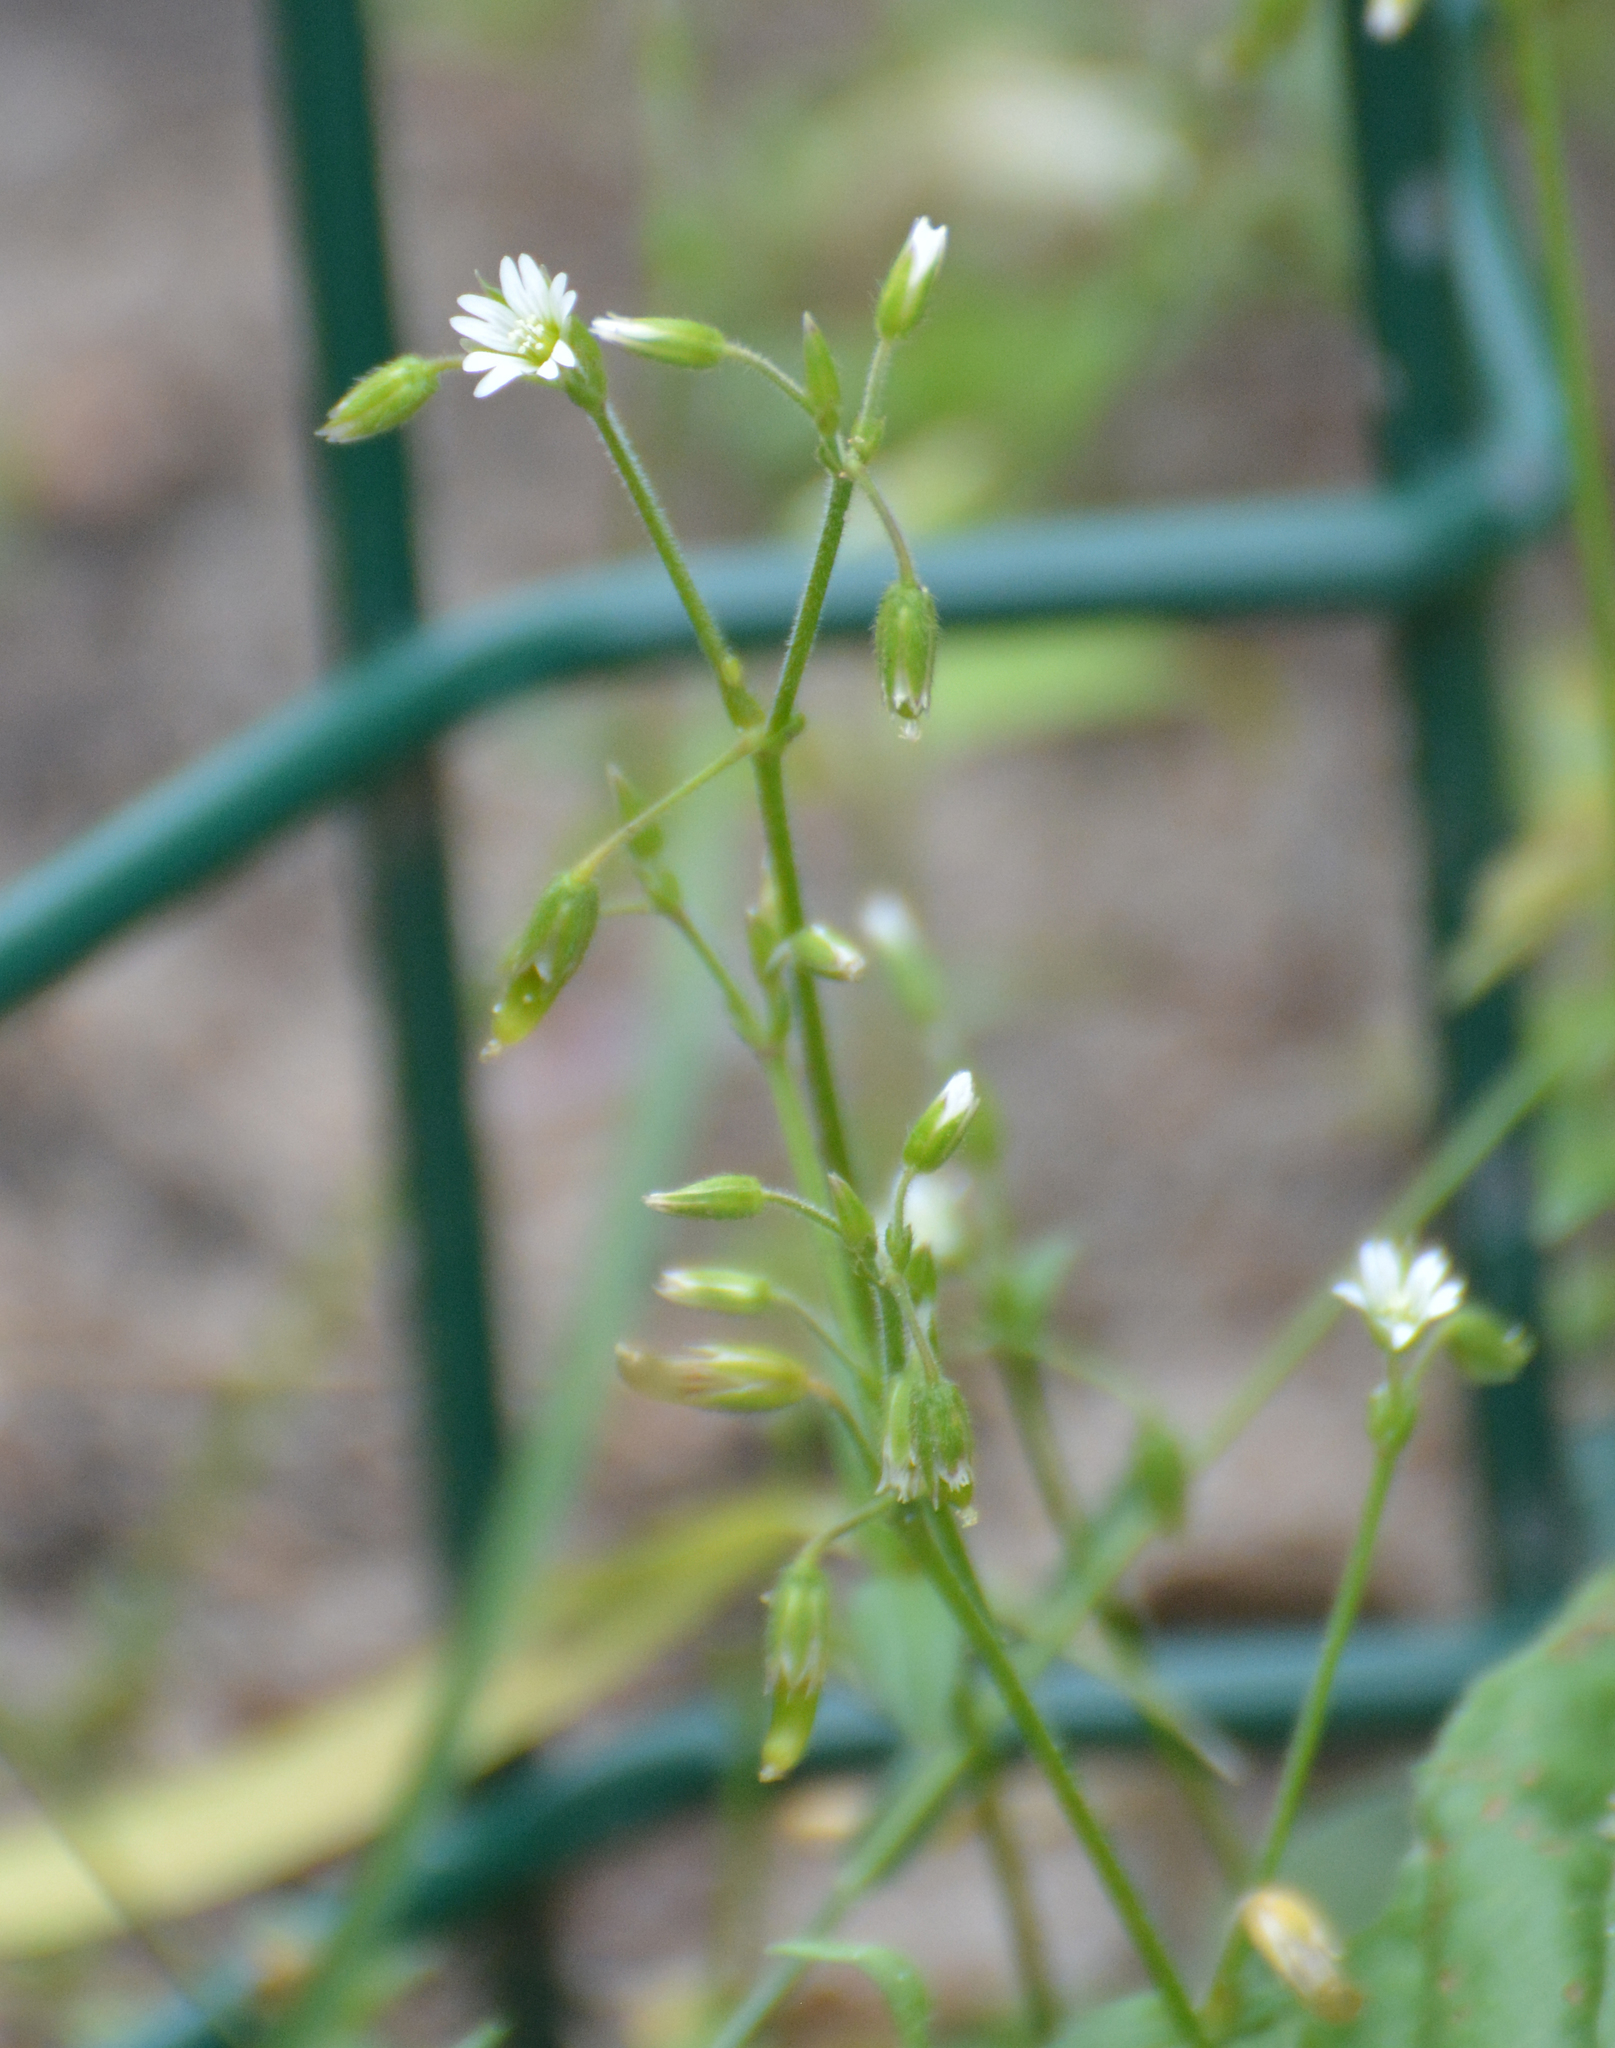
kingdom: Plantae
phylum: Tracheophyta
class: Magnoliopsida
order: Caryophyllales
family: Caryophyllaceae
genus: Cerastium
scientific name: Cerastium holosteoides
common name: Big chickweed
